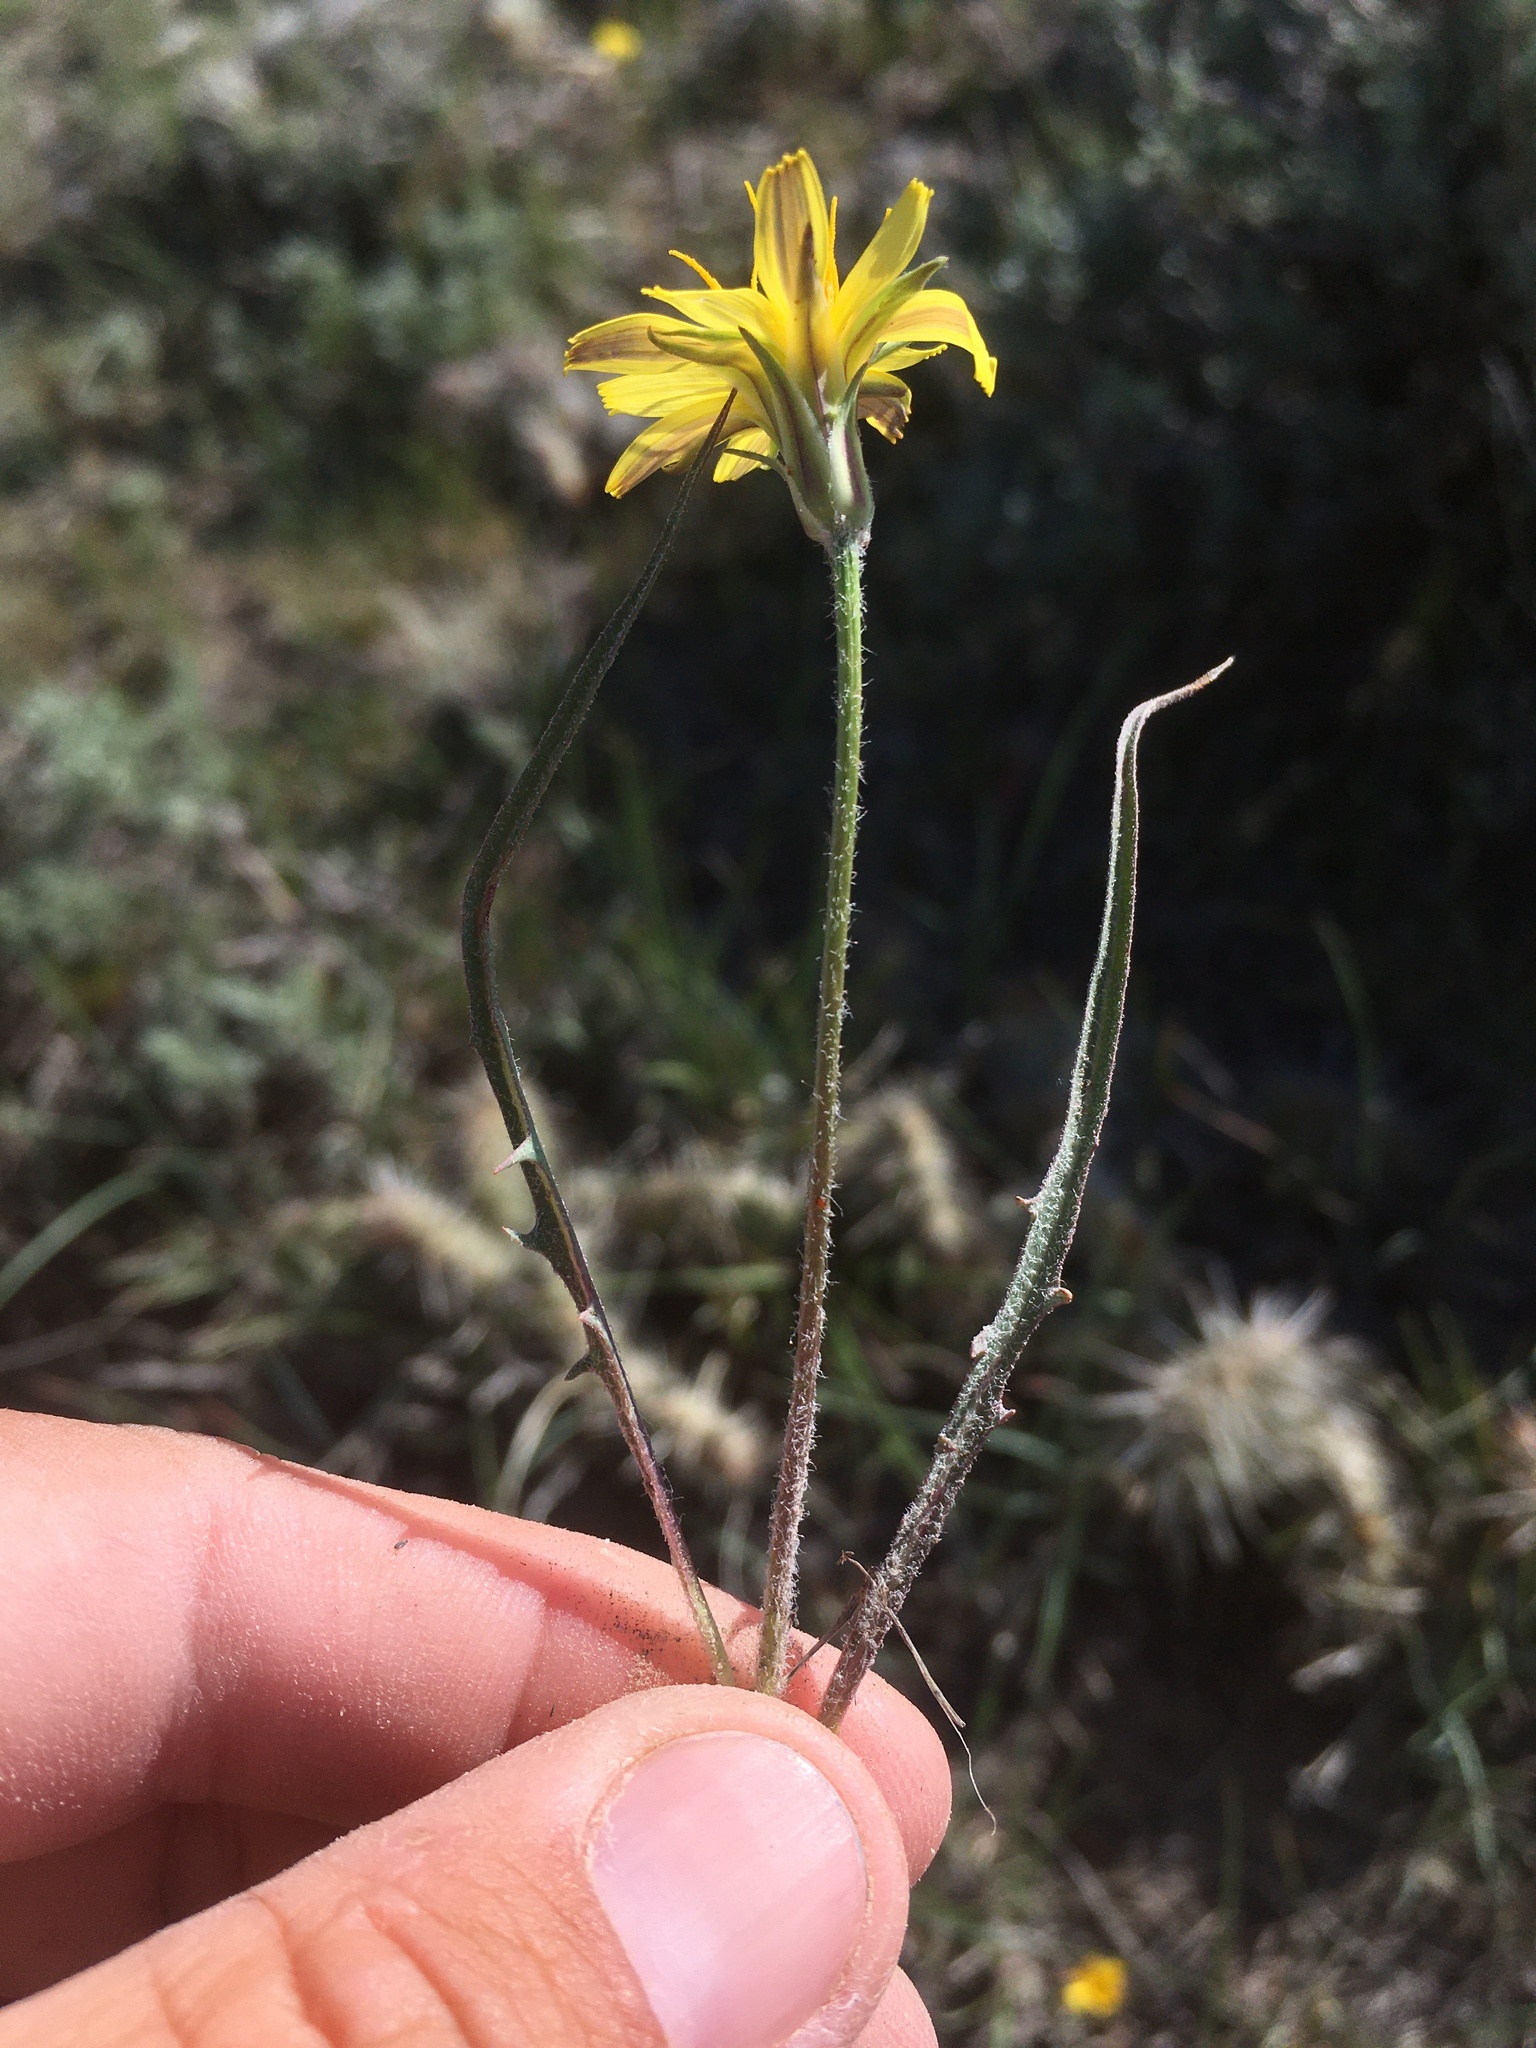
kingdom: Plantae
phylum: Tracheophyta
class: Magnoliopsida
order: Asterales
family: Asteraceae
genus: Agoseris
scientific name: Agoseris parviflora
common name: Steppe agoseris
